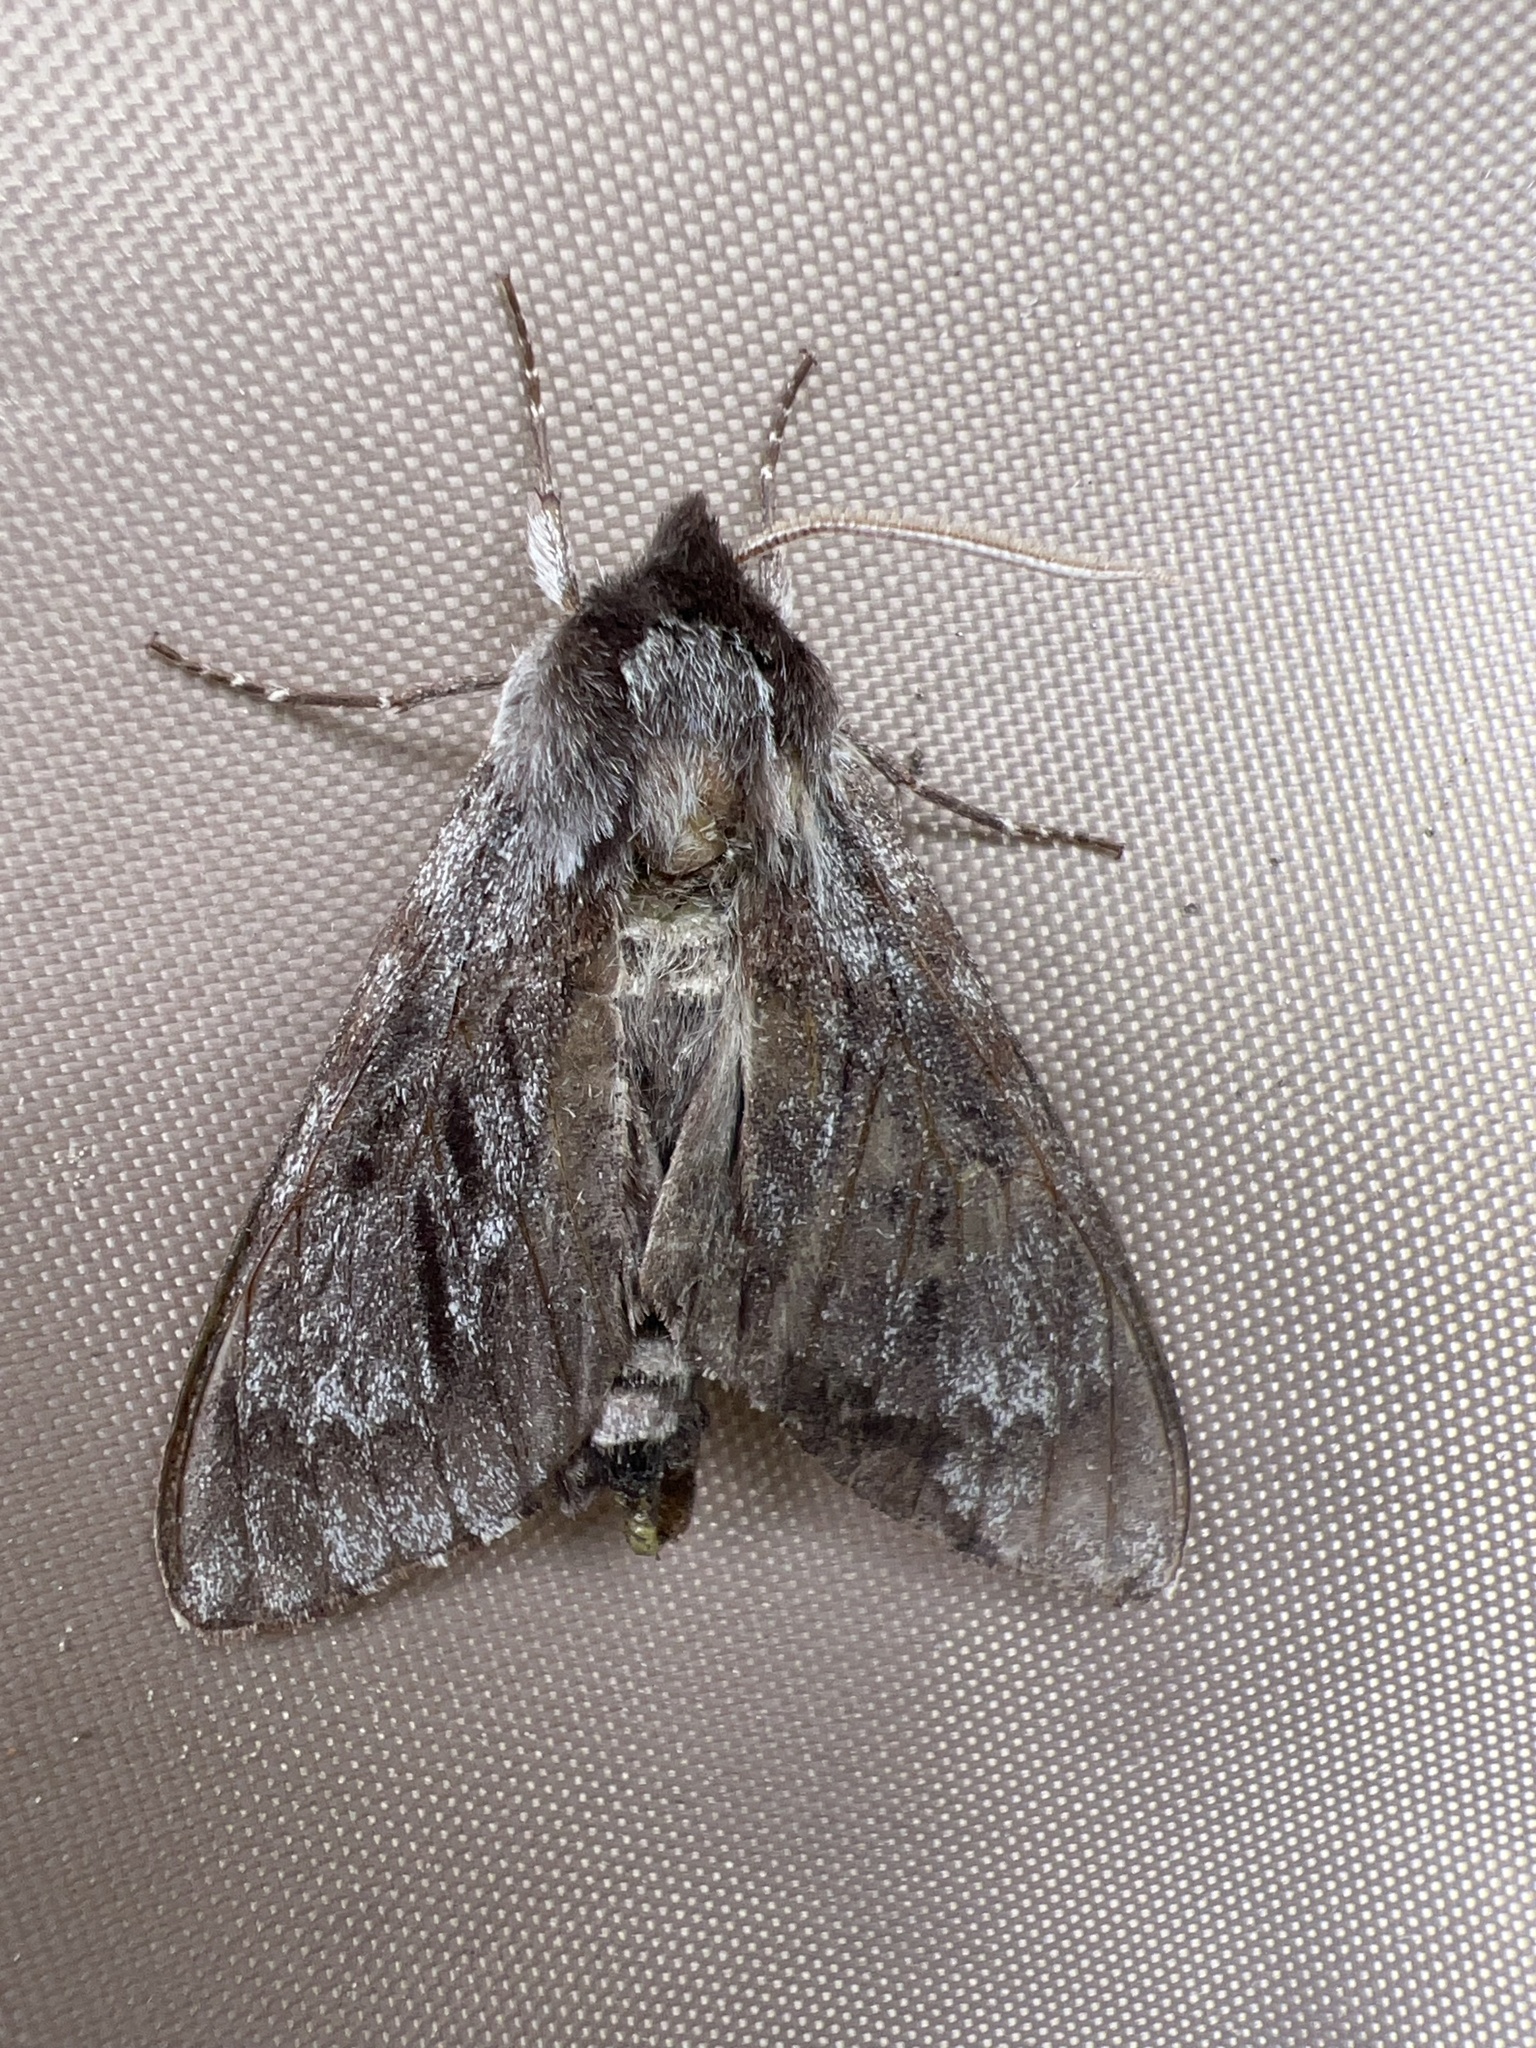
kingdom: Animalia
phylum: Arthropoda
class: Insecta
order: Lepidoptera
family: Sphingidae
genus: Lapara
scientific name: Lapara bombycoides
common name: Northern pine sphinx
